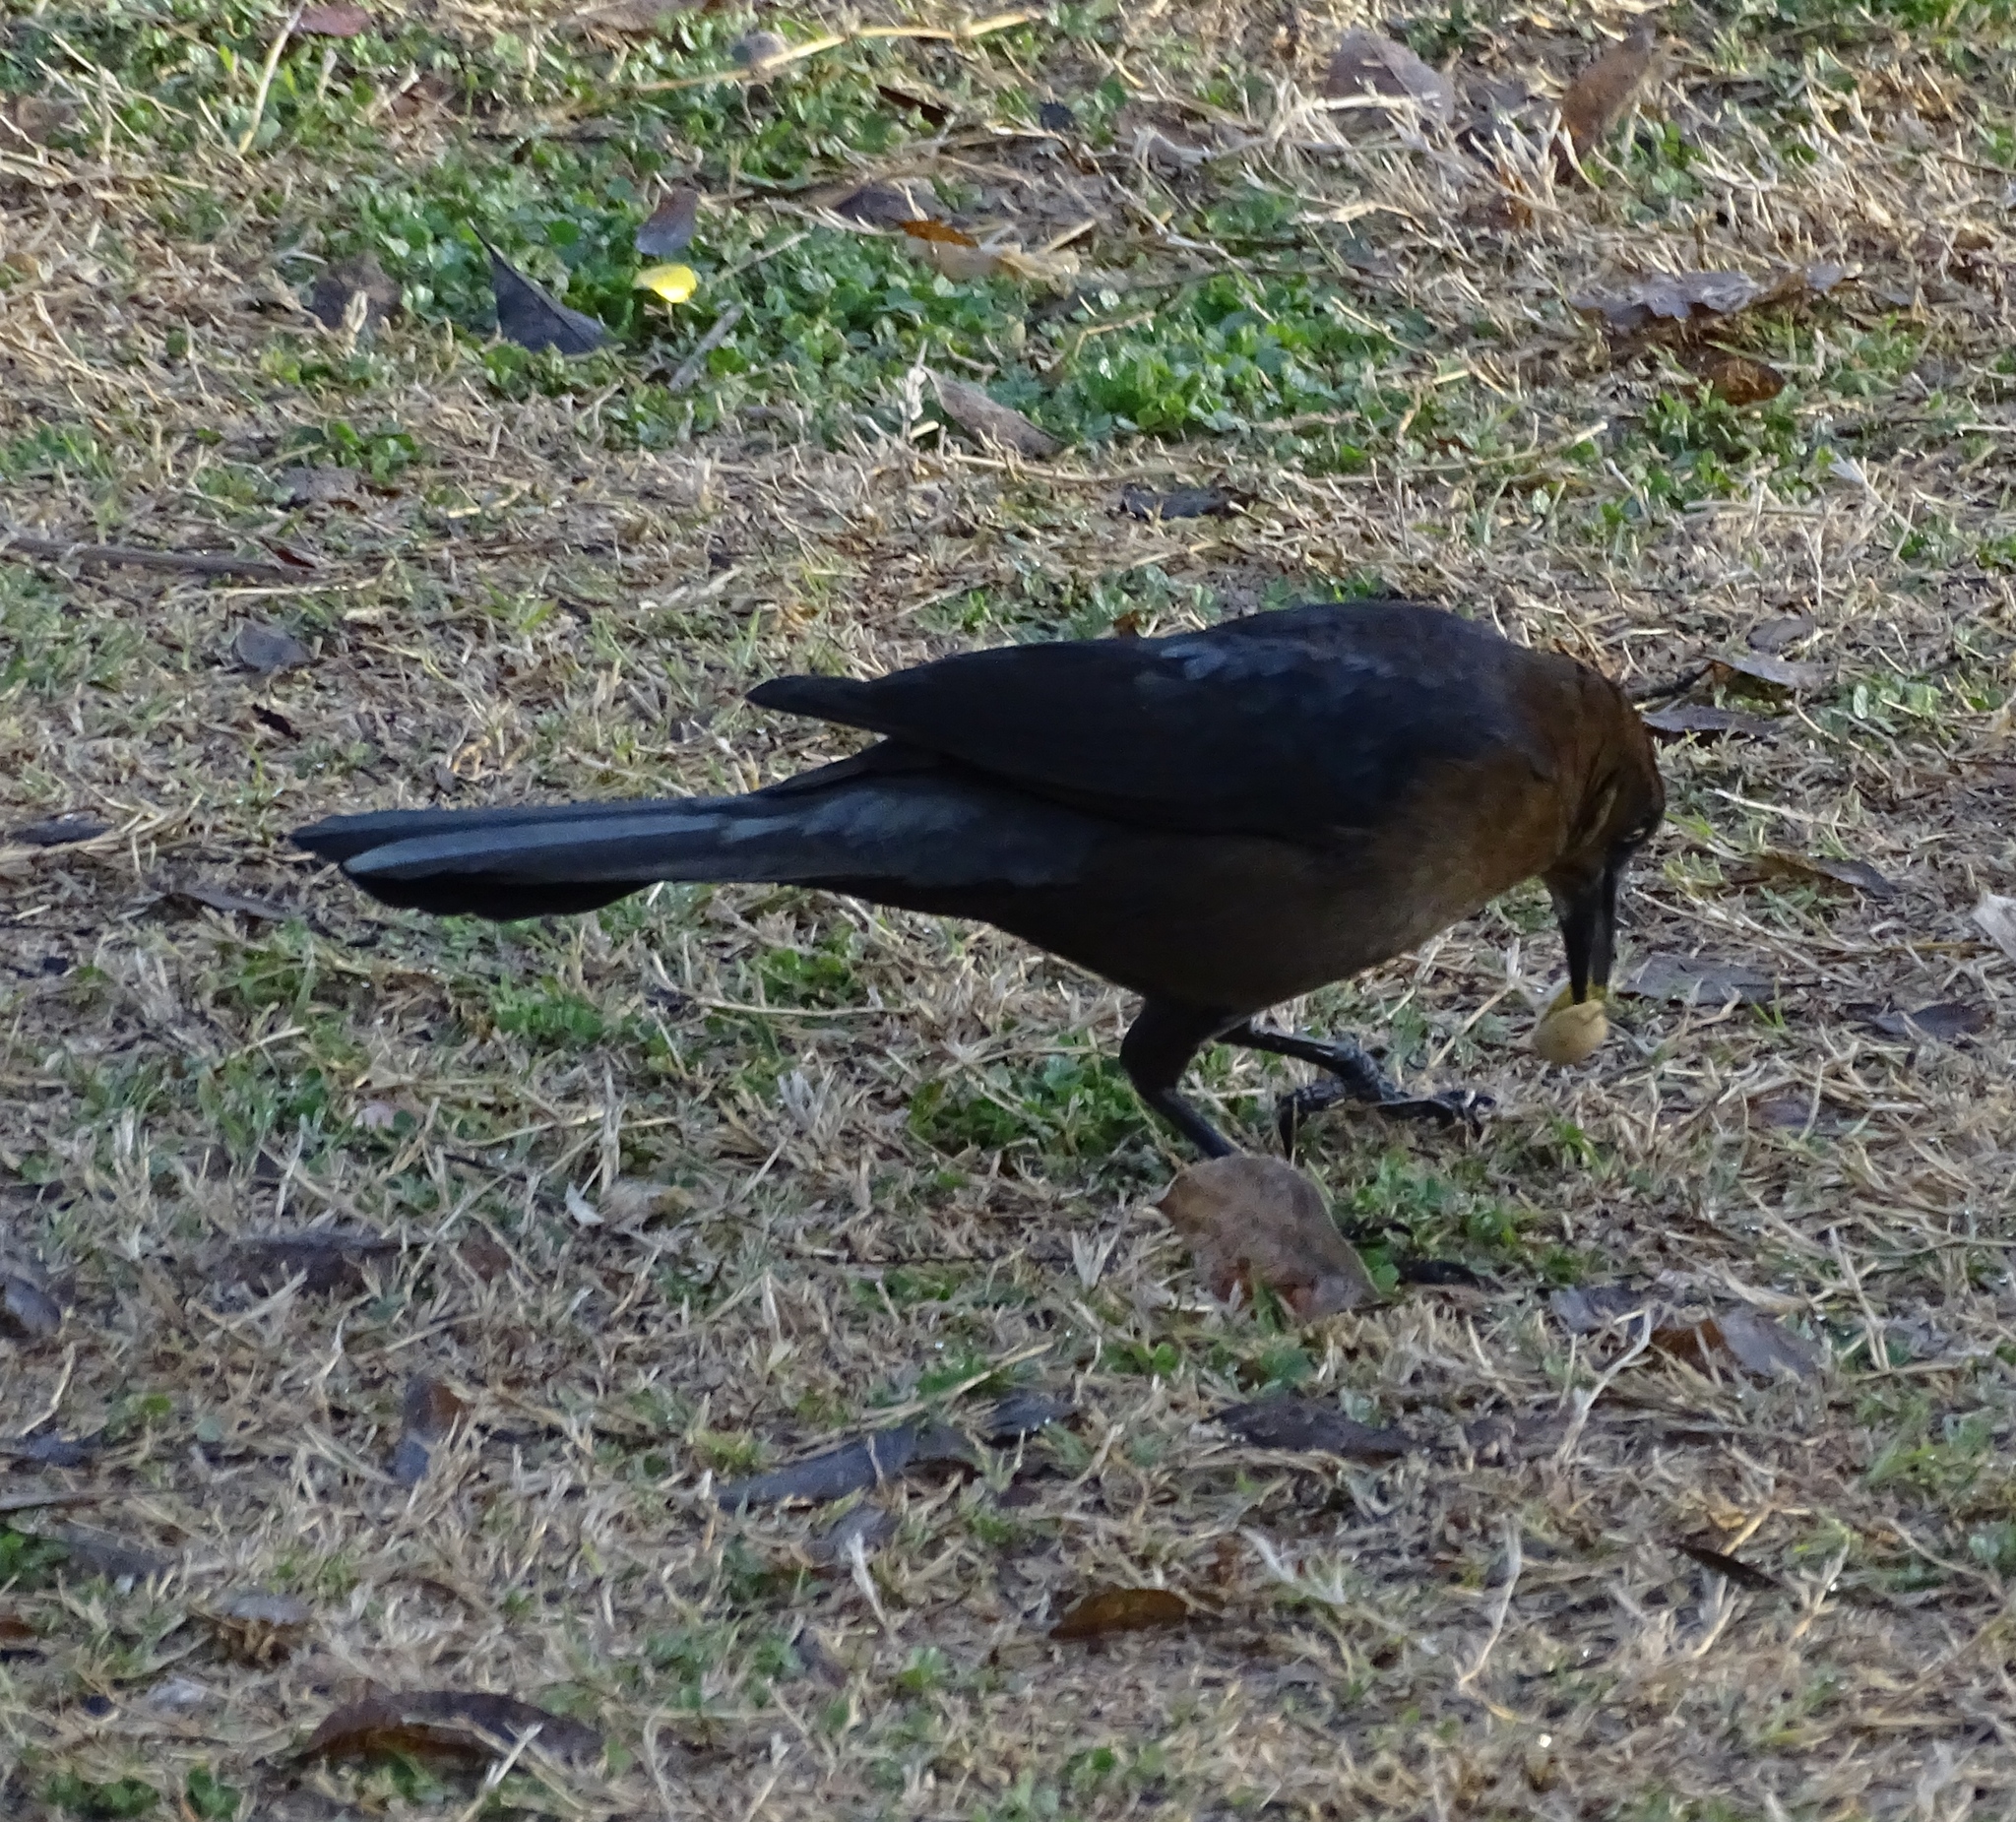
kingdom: Animalia
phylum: Chordata
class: Aves
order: Passeriformes
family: Icteridae
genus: Quiscalus
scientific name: Quiscalus mexicanus
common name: Great-tailed grackle
